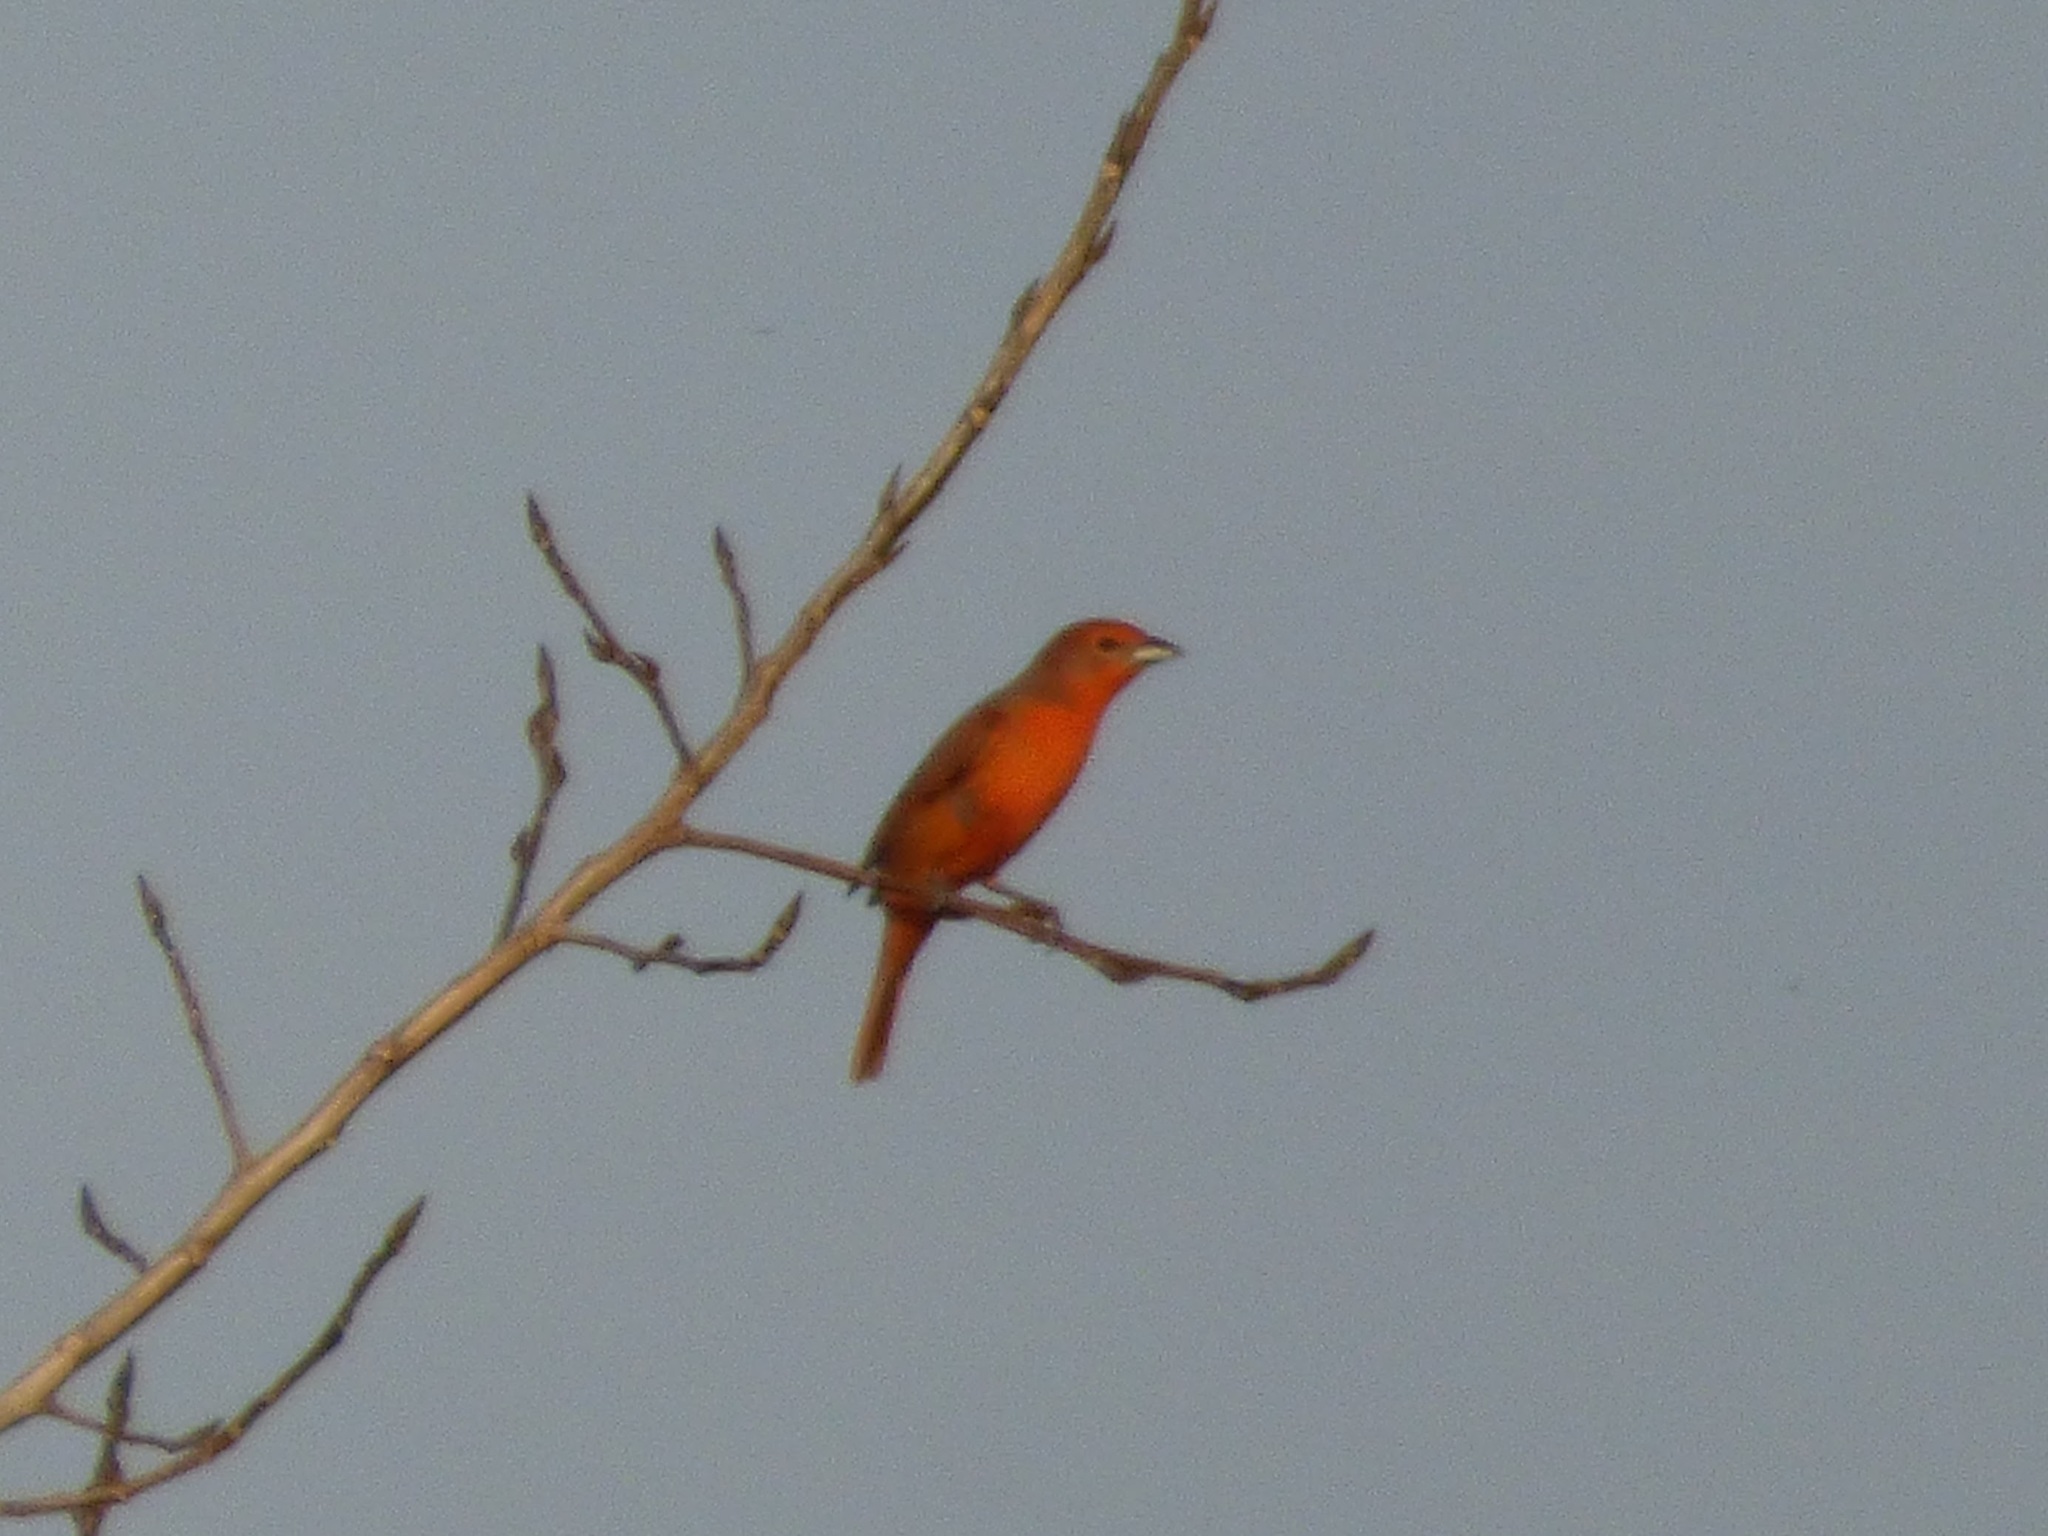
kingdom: Animalia
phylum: Chordata
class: Aves
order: Passeriformes
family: Cardinalidae
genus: Piranga
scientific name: Piranga flava
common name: Red tanager
